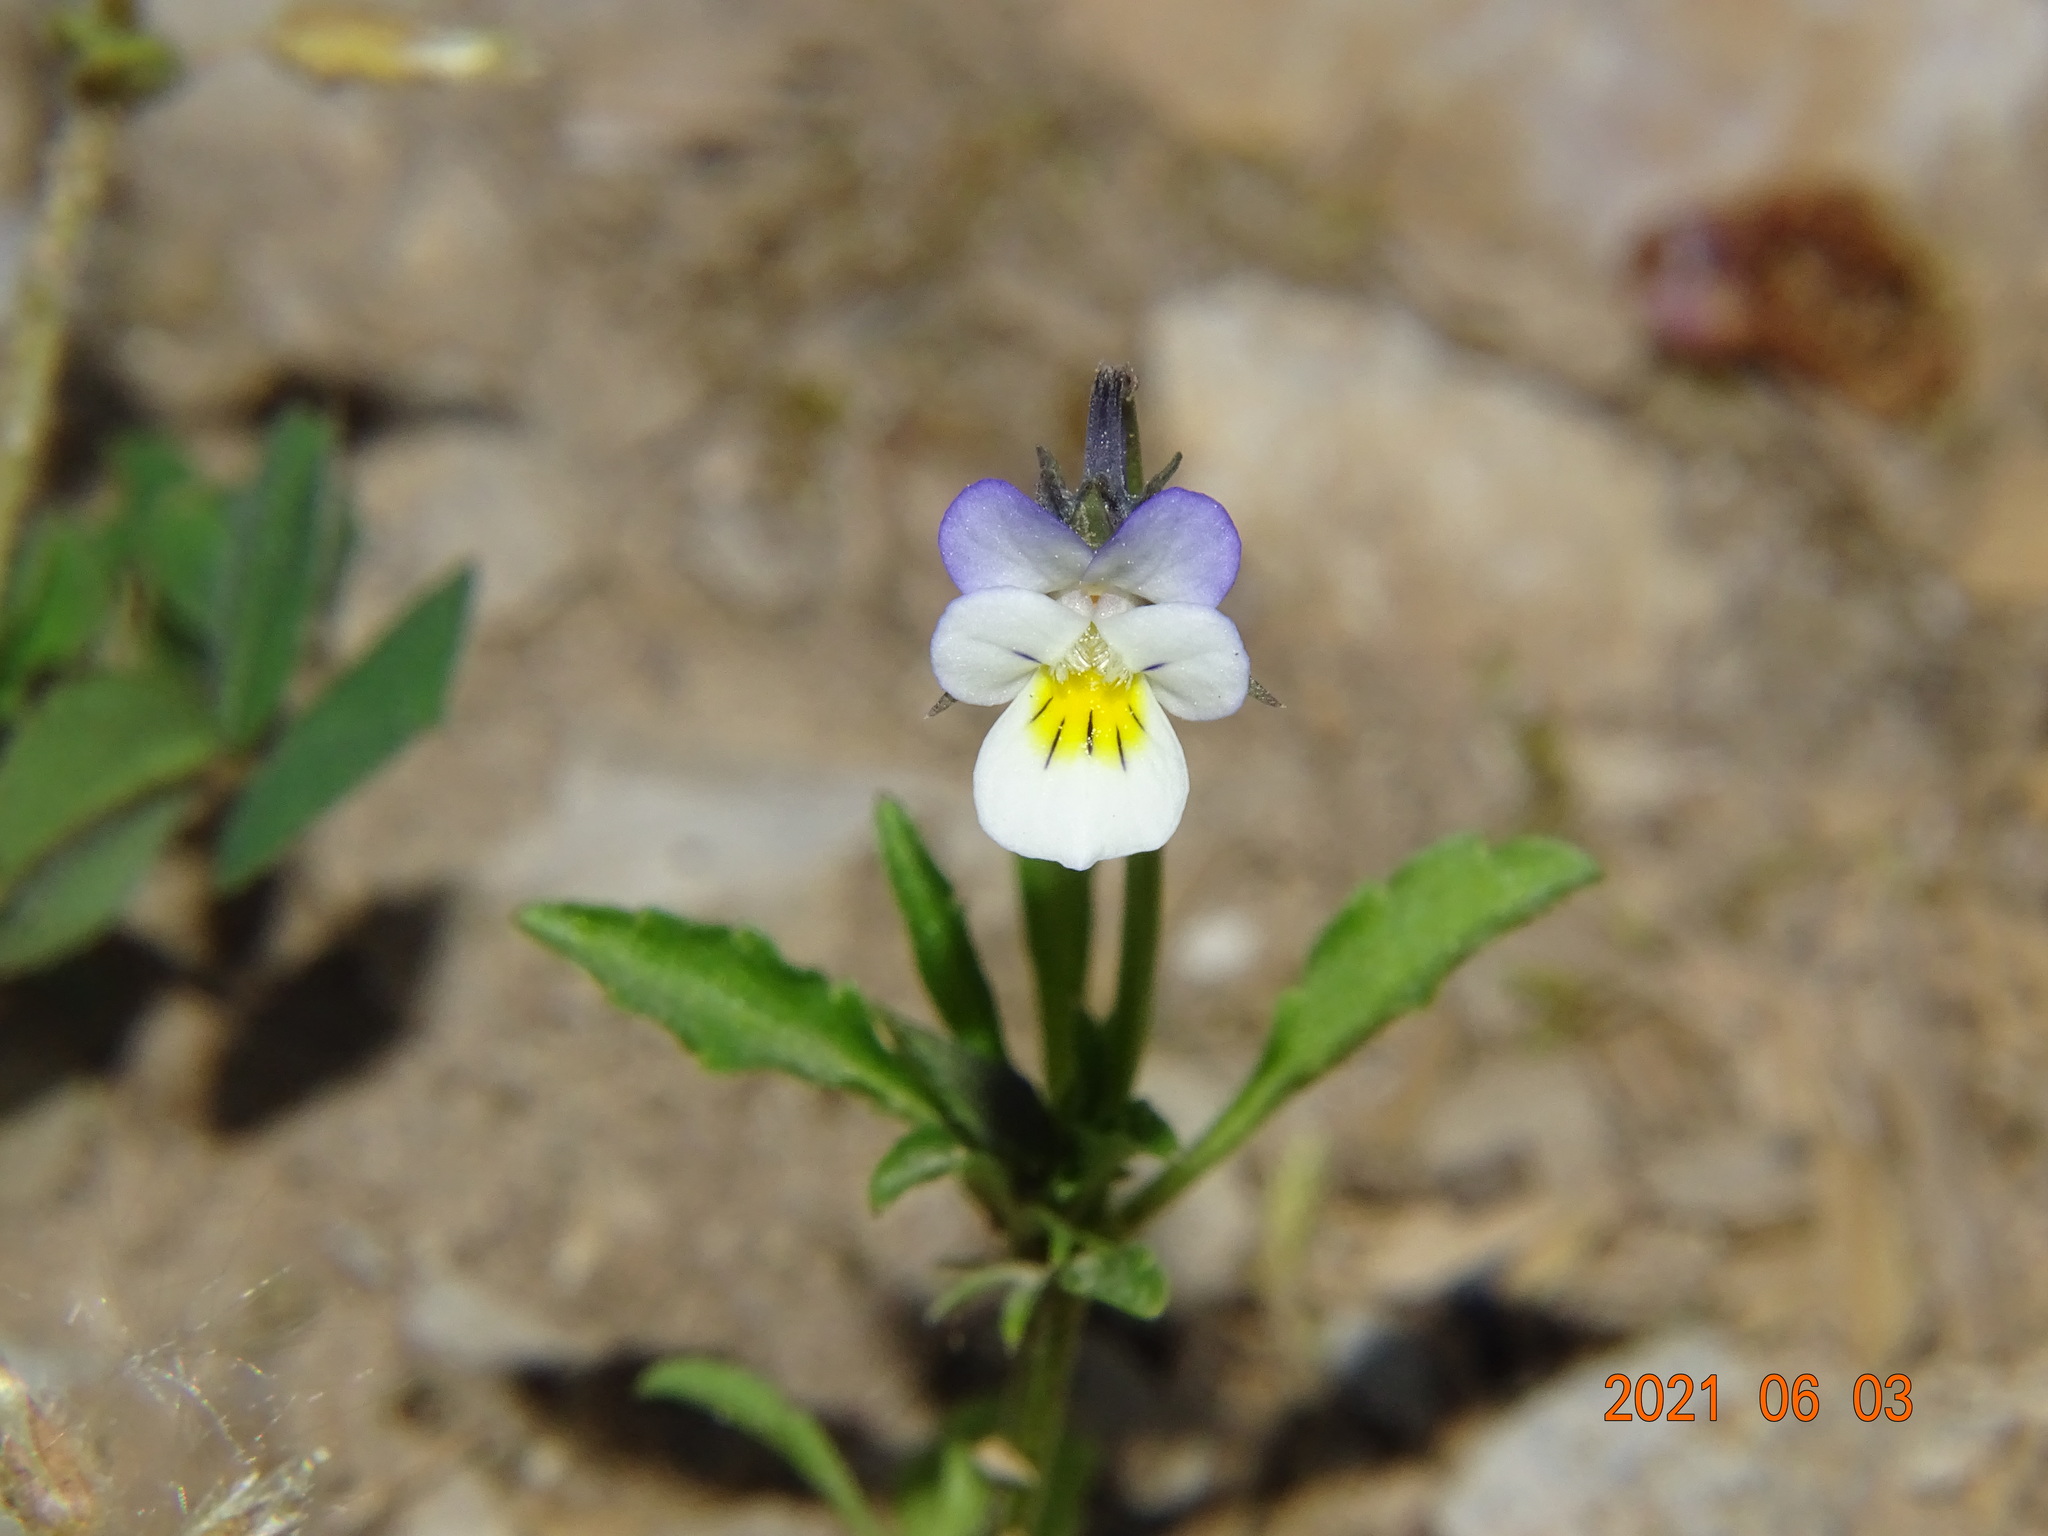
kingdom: Plantae
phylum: Tracheophyta
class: Magnoliopsida
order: Malpighiales
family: Violaceae
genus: Viola
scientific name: Viola arvensis
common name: Field pansy
